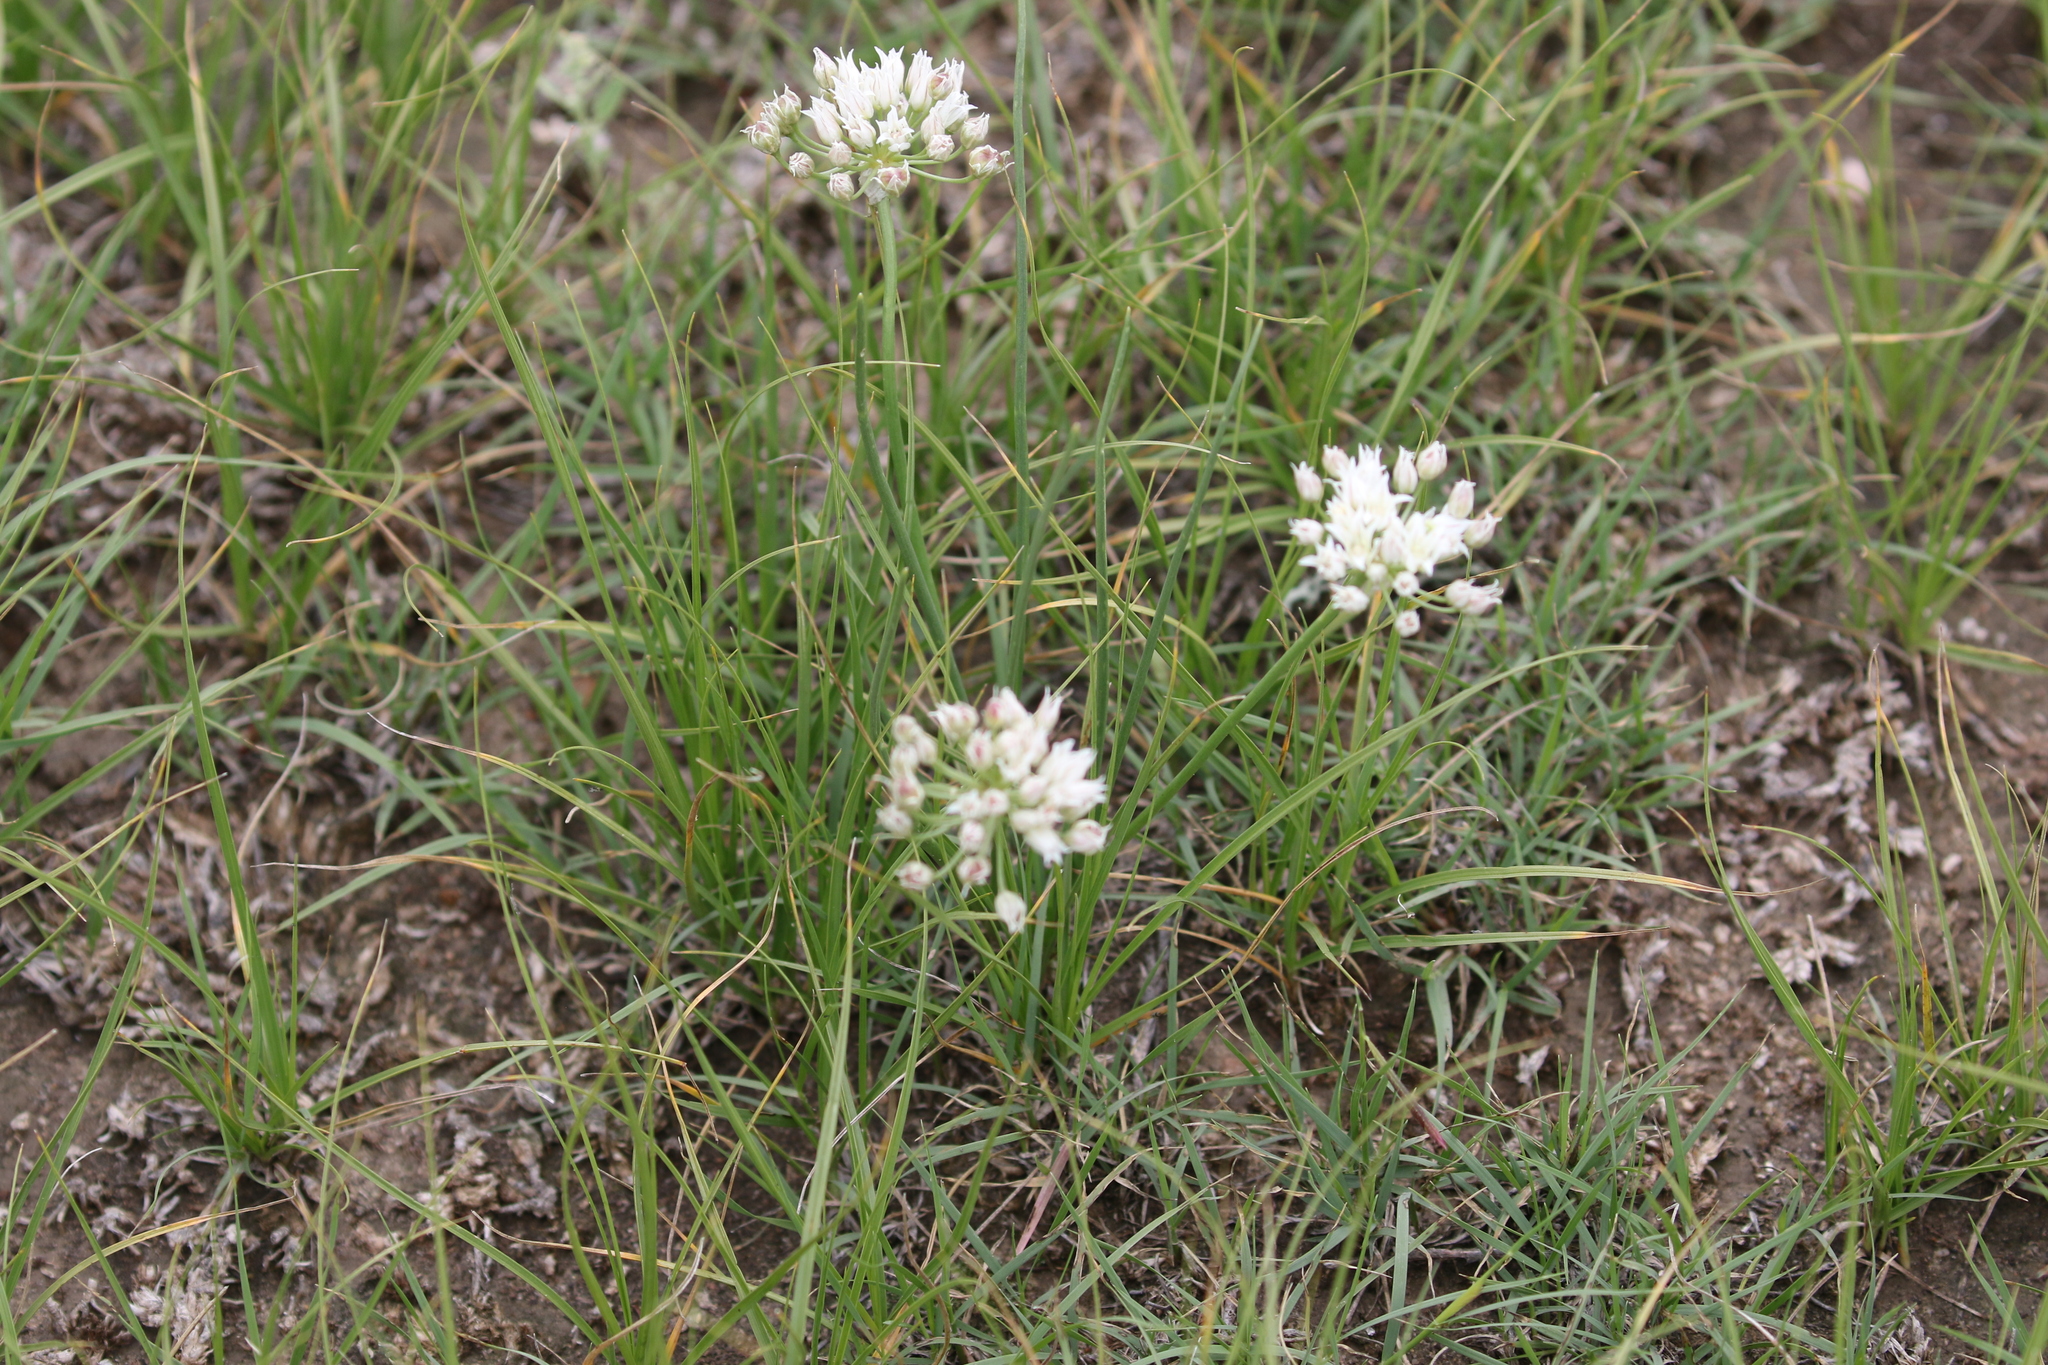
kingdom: Plantae
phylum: Tracheophyta
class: Liliopsida
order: Asparagales
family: Amaryllidaceae
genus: Allium
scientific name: Allium textile
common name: Prairie onion
